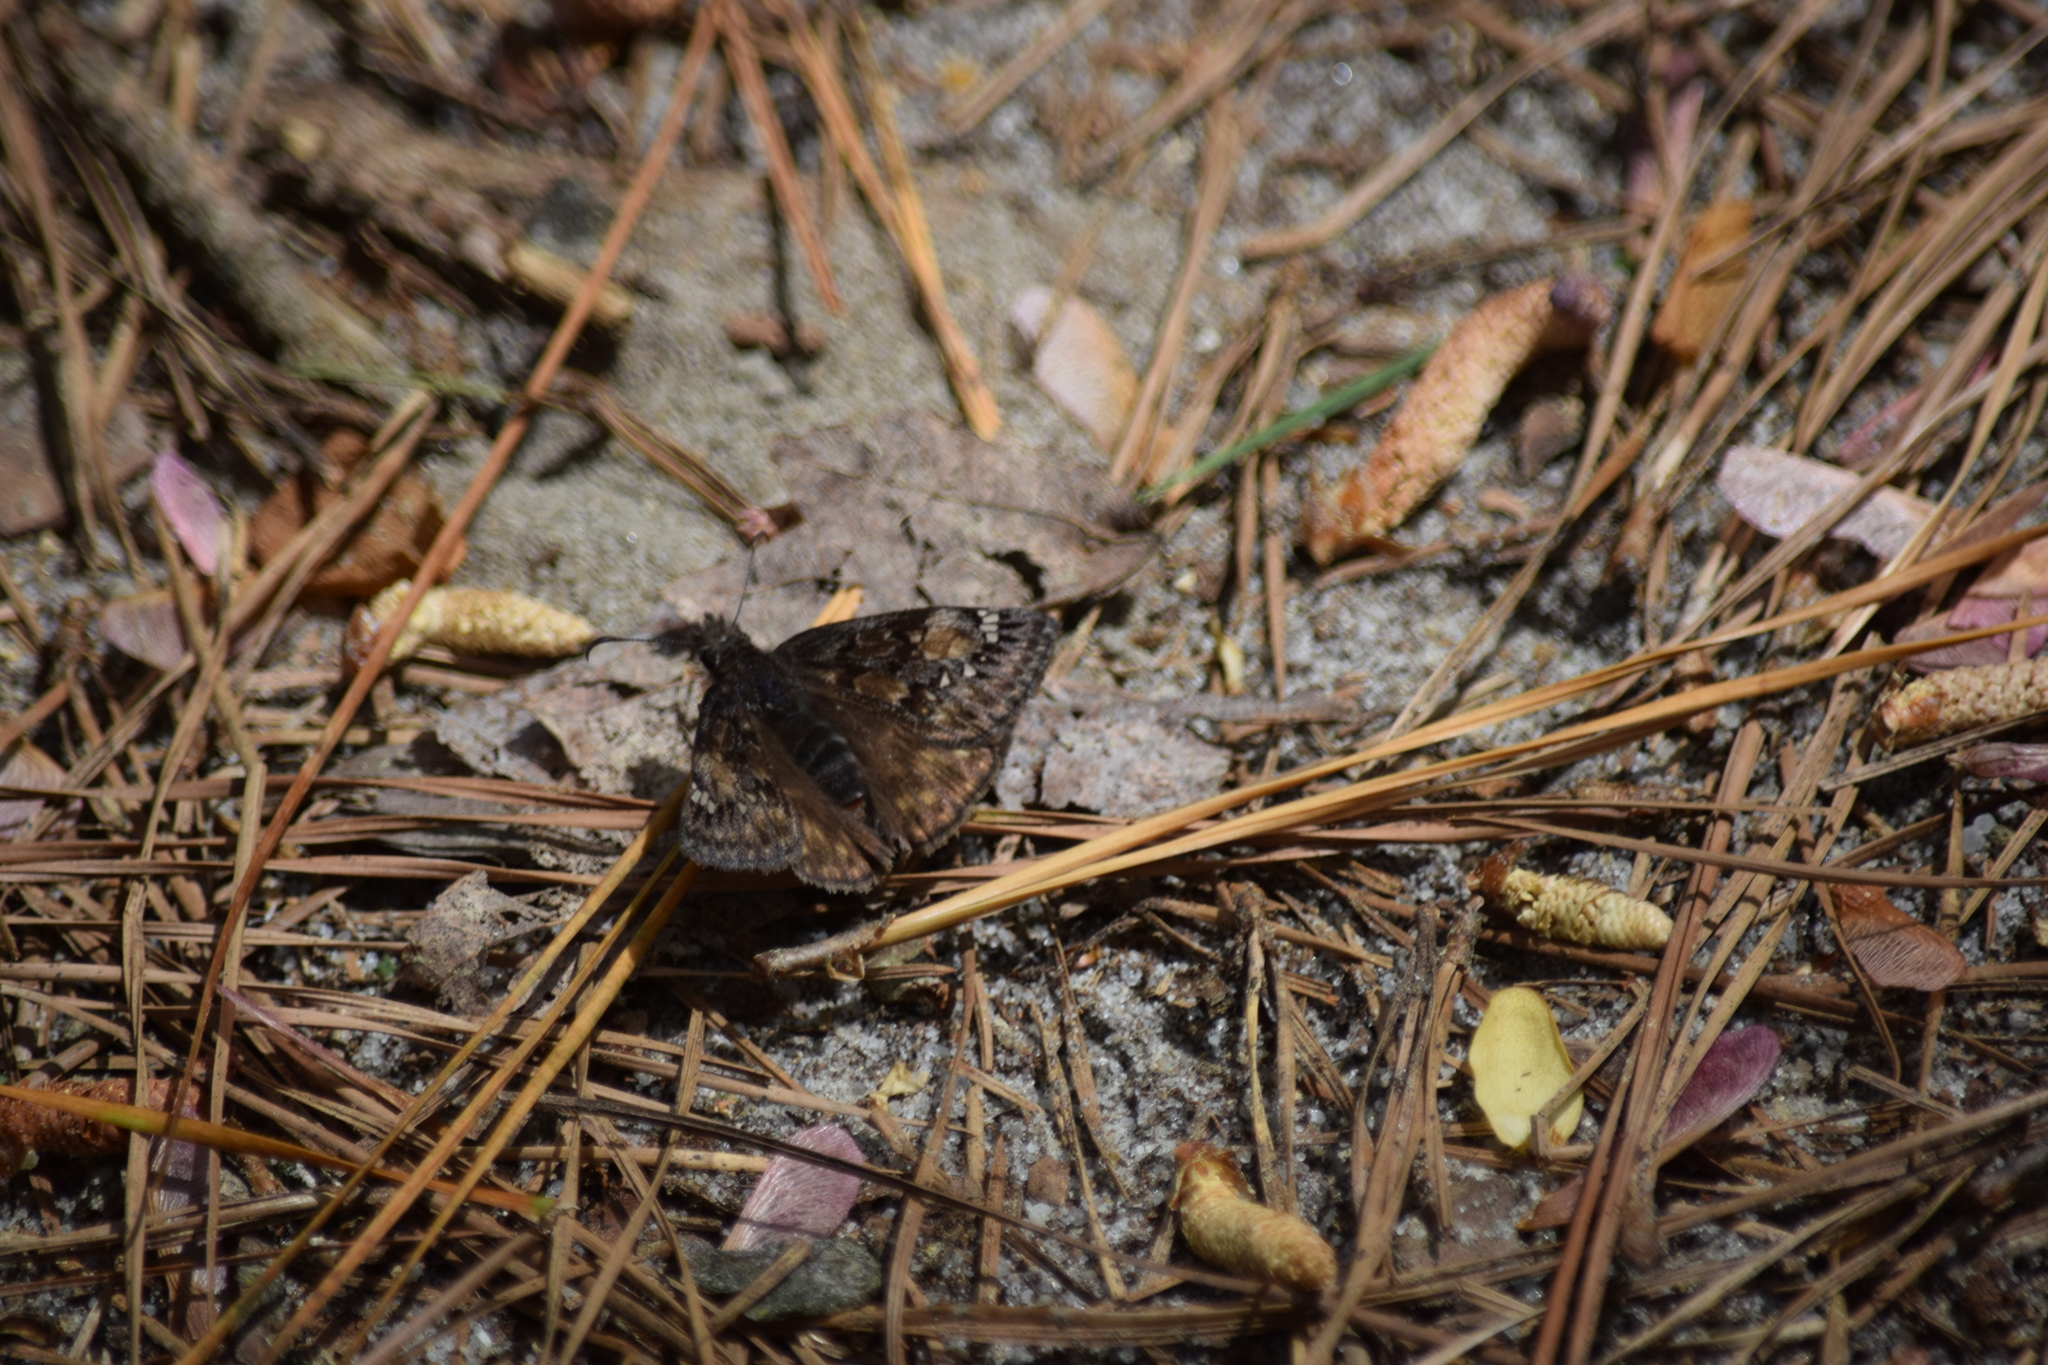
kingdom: Animalia
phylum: Arthropoda
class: Insecta
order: Lepidoptera
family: Hesperiidae
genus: Erynnis
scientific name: Erynnis juvenalis
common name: Juvenal's duskywing
